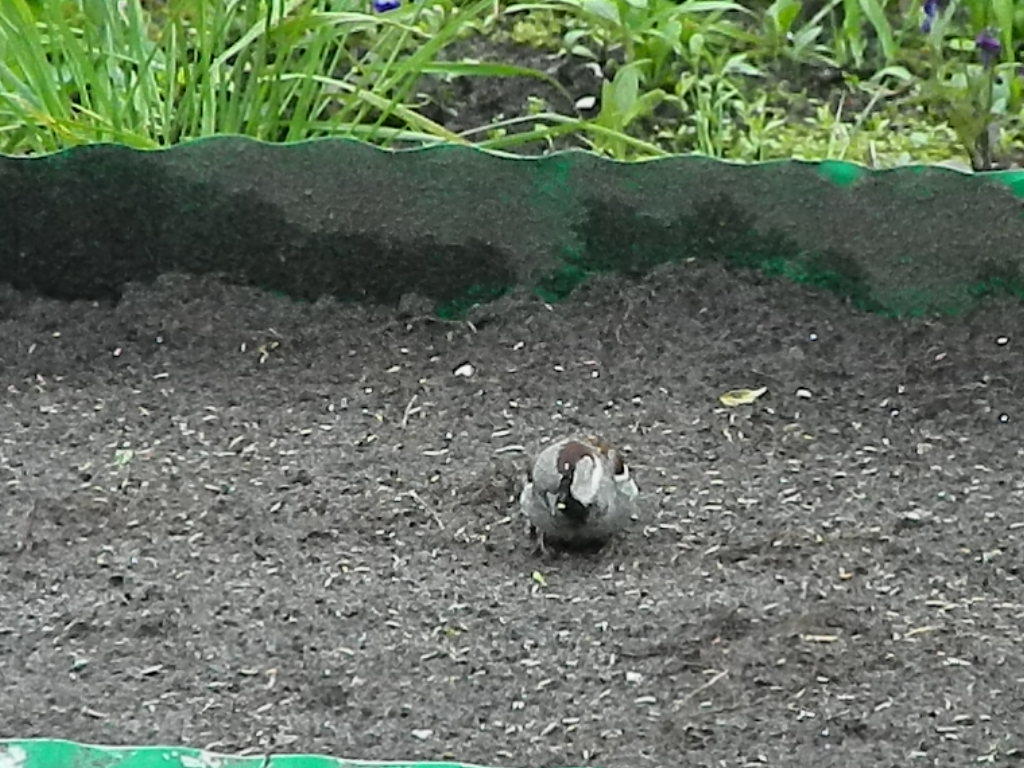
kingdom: Animalia
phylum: Chordata
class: Aves
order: Passeriformes
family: Passeridae
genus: Passer
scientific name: Passer domesticus
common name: House sparrow
